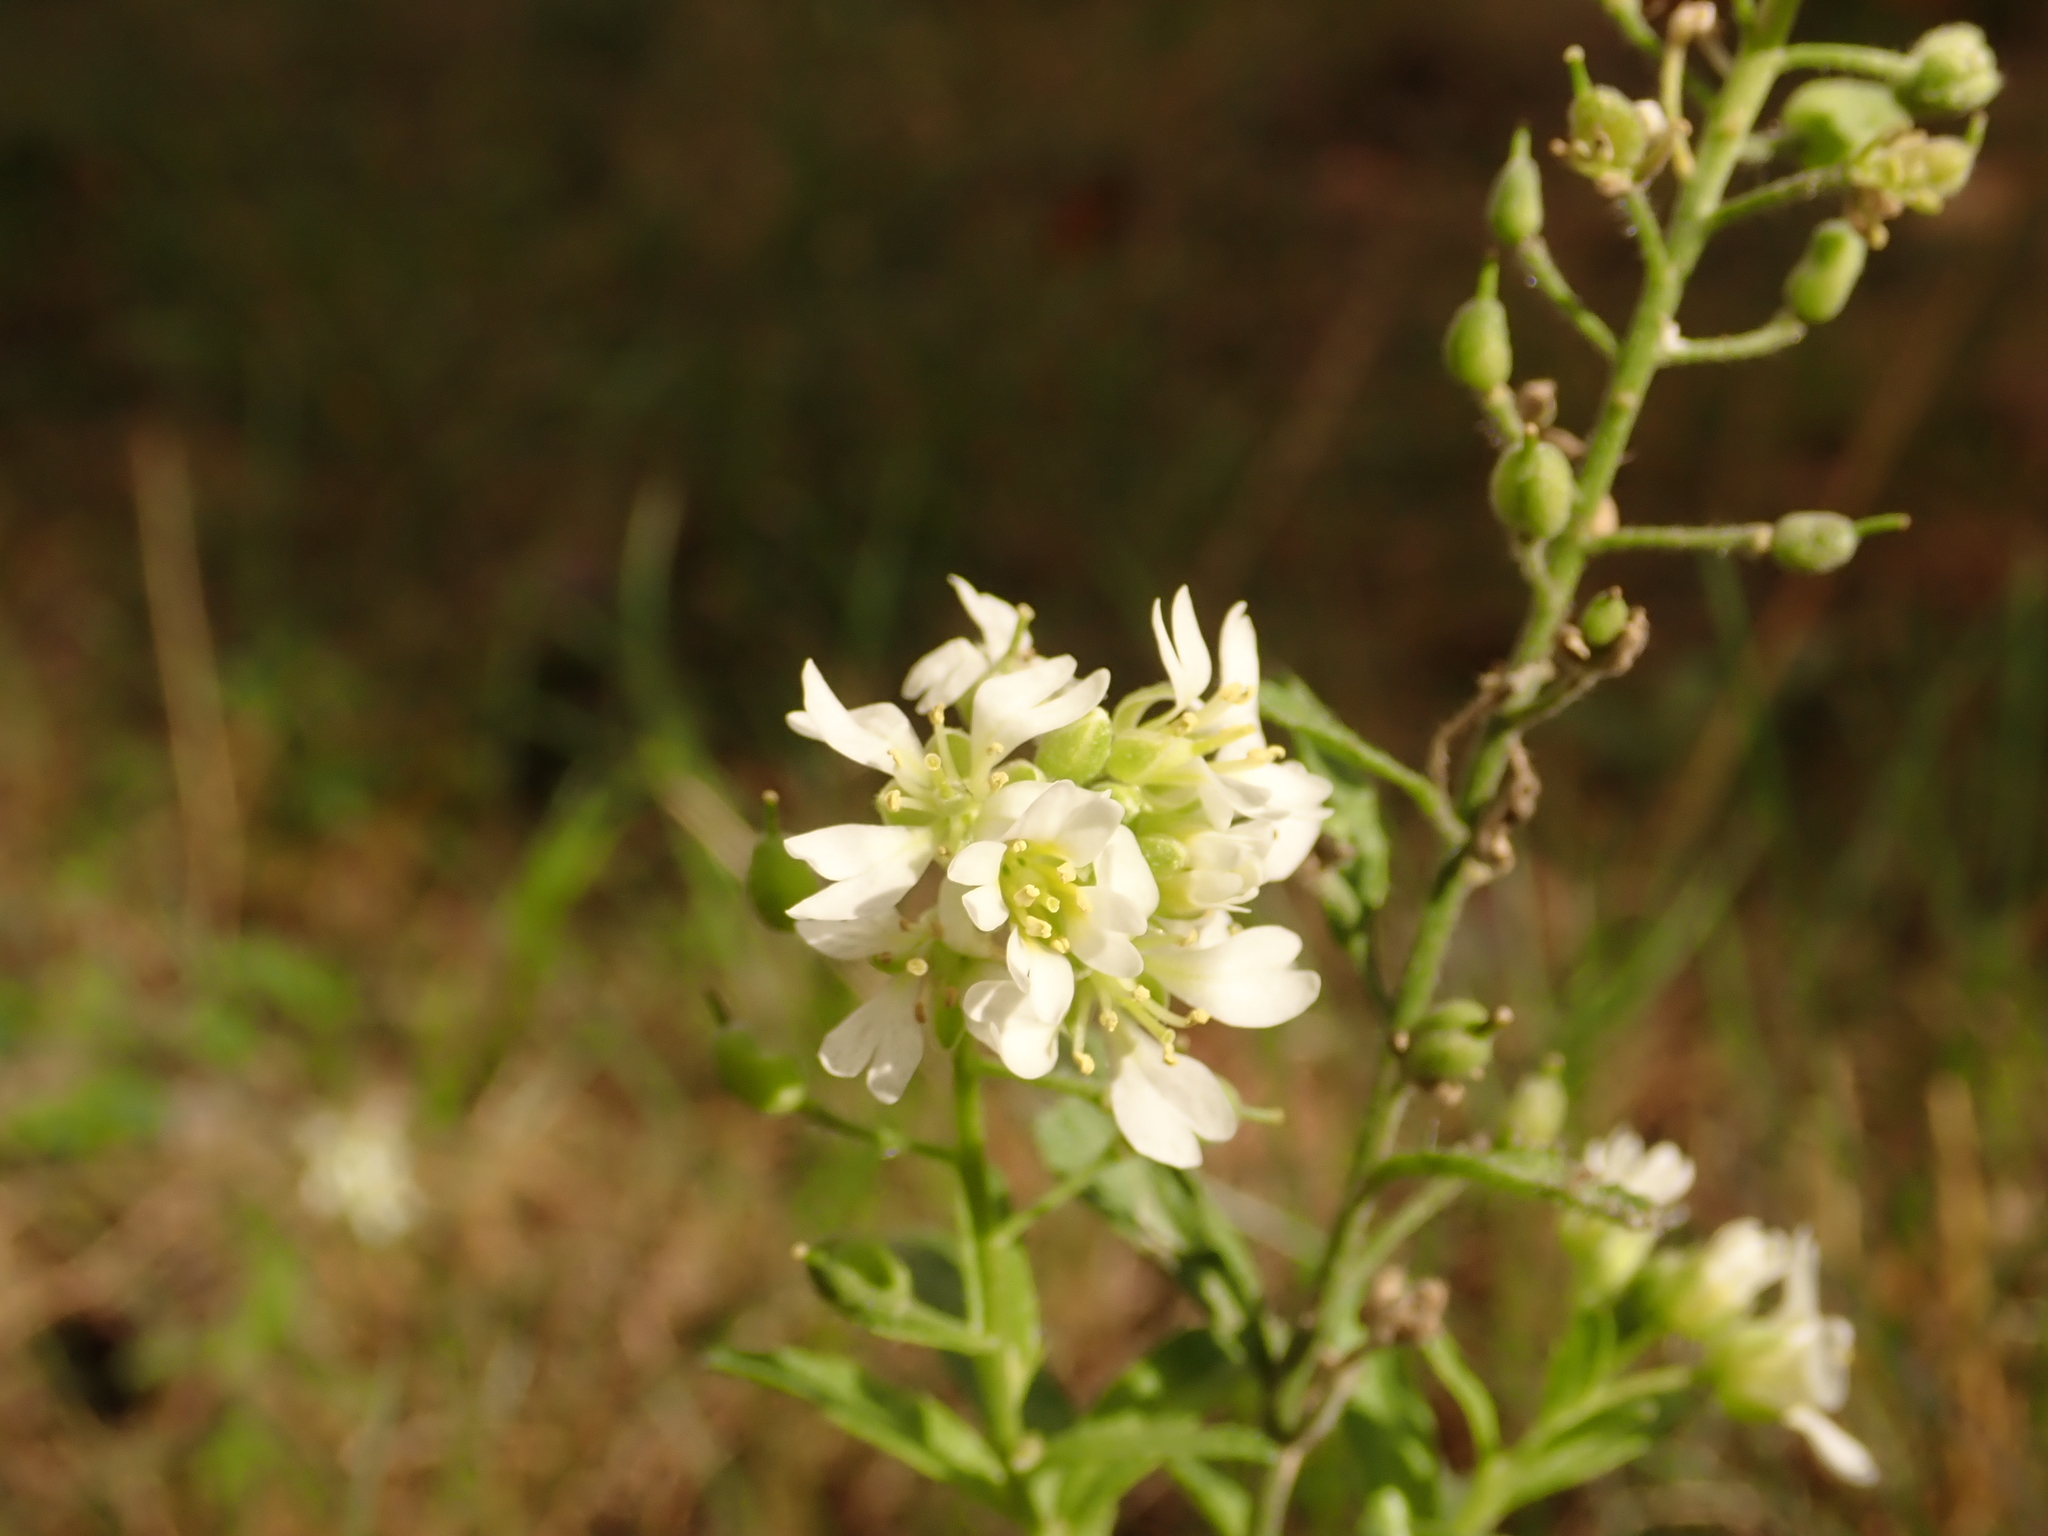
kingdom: Plantae
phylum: Tracheophyta
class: Magnoliopsida
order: Brassicales
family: Brassicaceae
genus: Berteroa
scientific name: Berteroa incana
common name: Hoary alison
